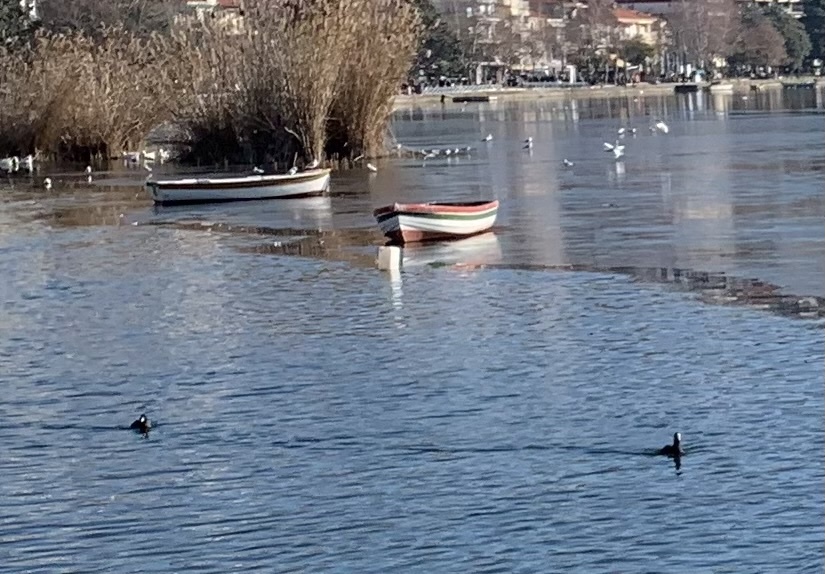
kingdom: Animalia
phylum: Chordata
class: Aves
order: Gruiformes
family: Rallidae
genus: Fulica
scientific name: Fulica atra
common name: Eurasian coot
